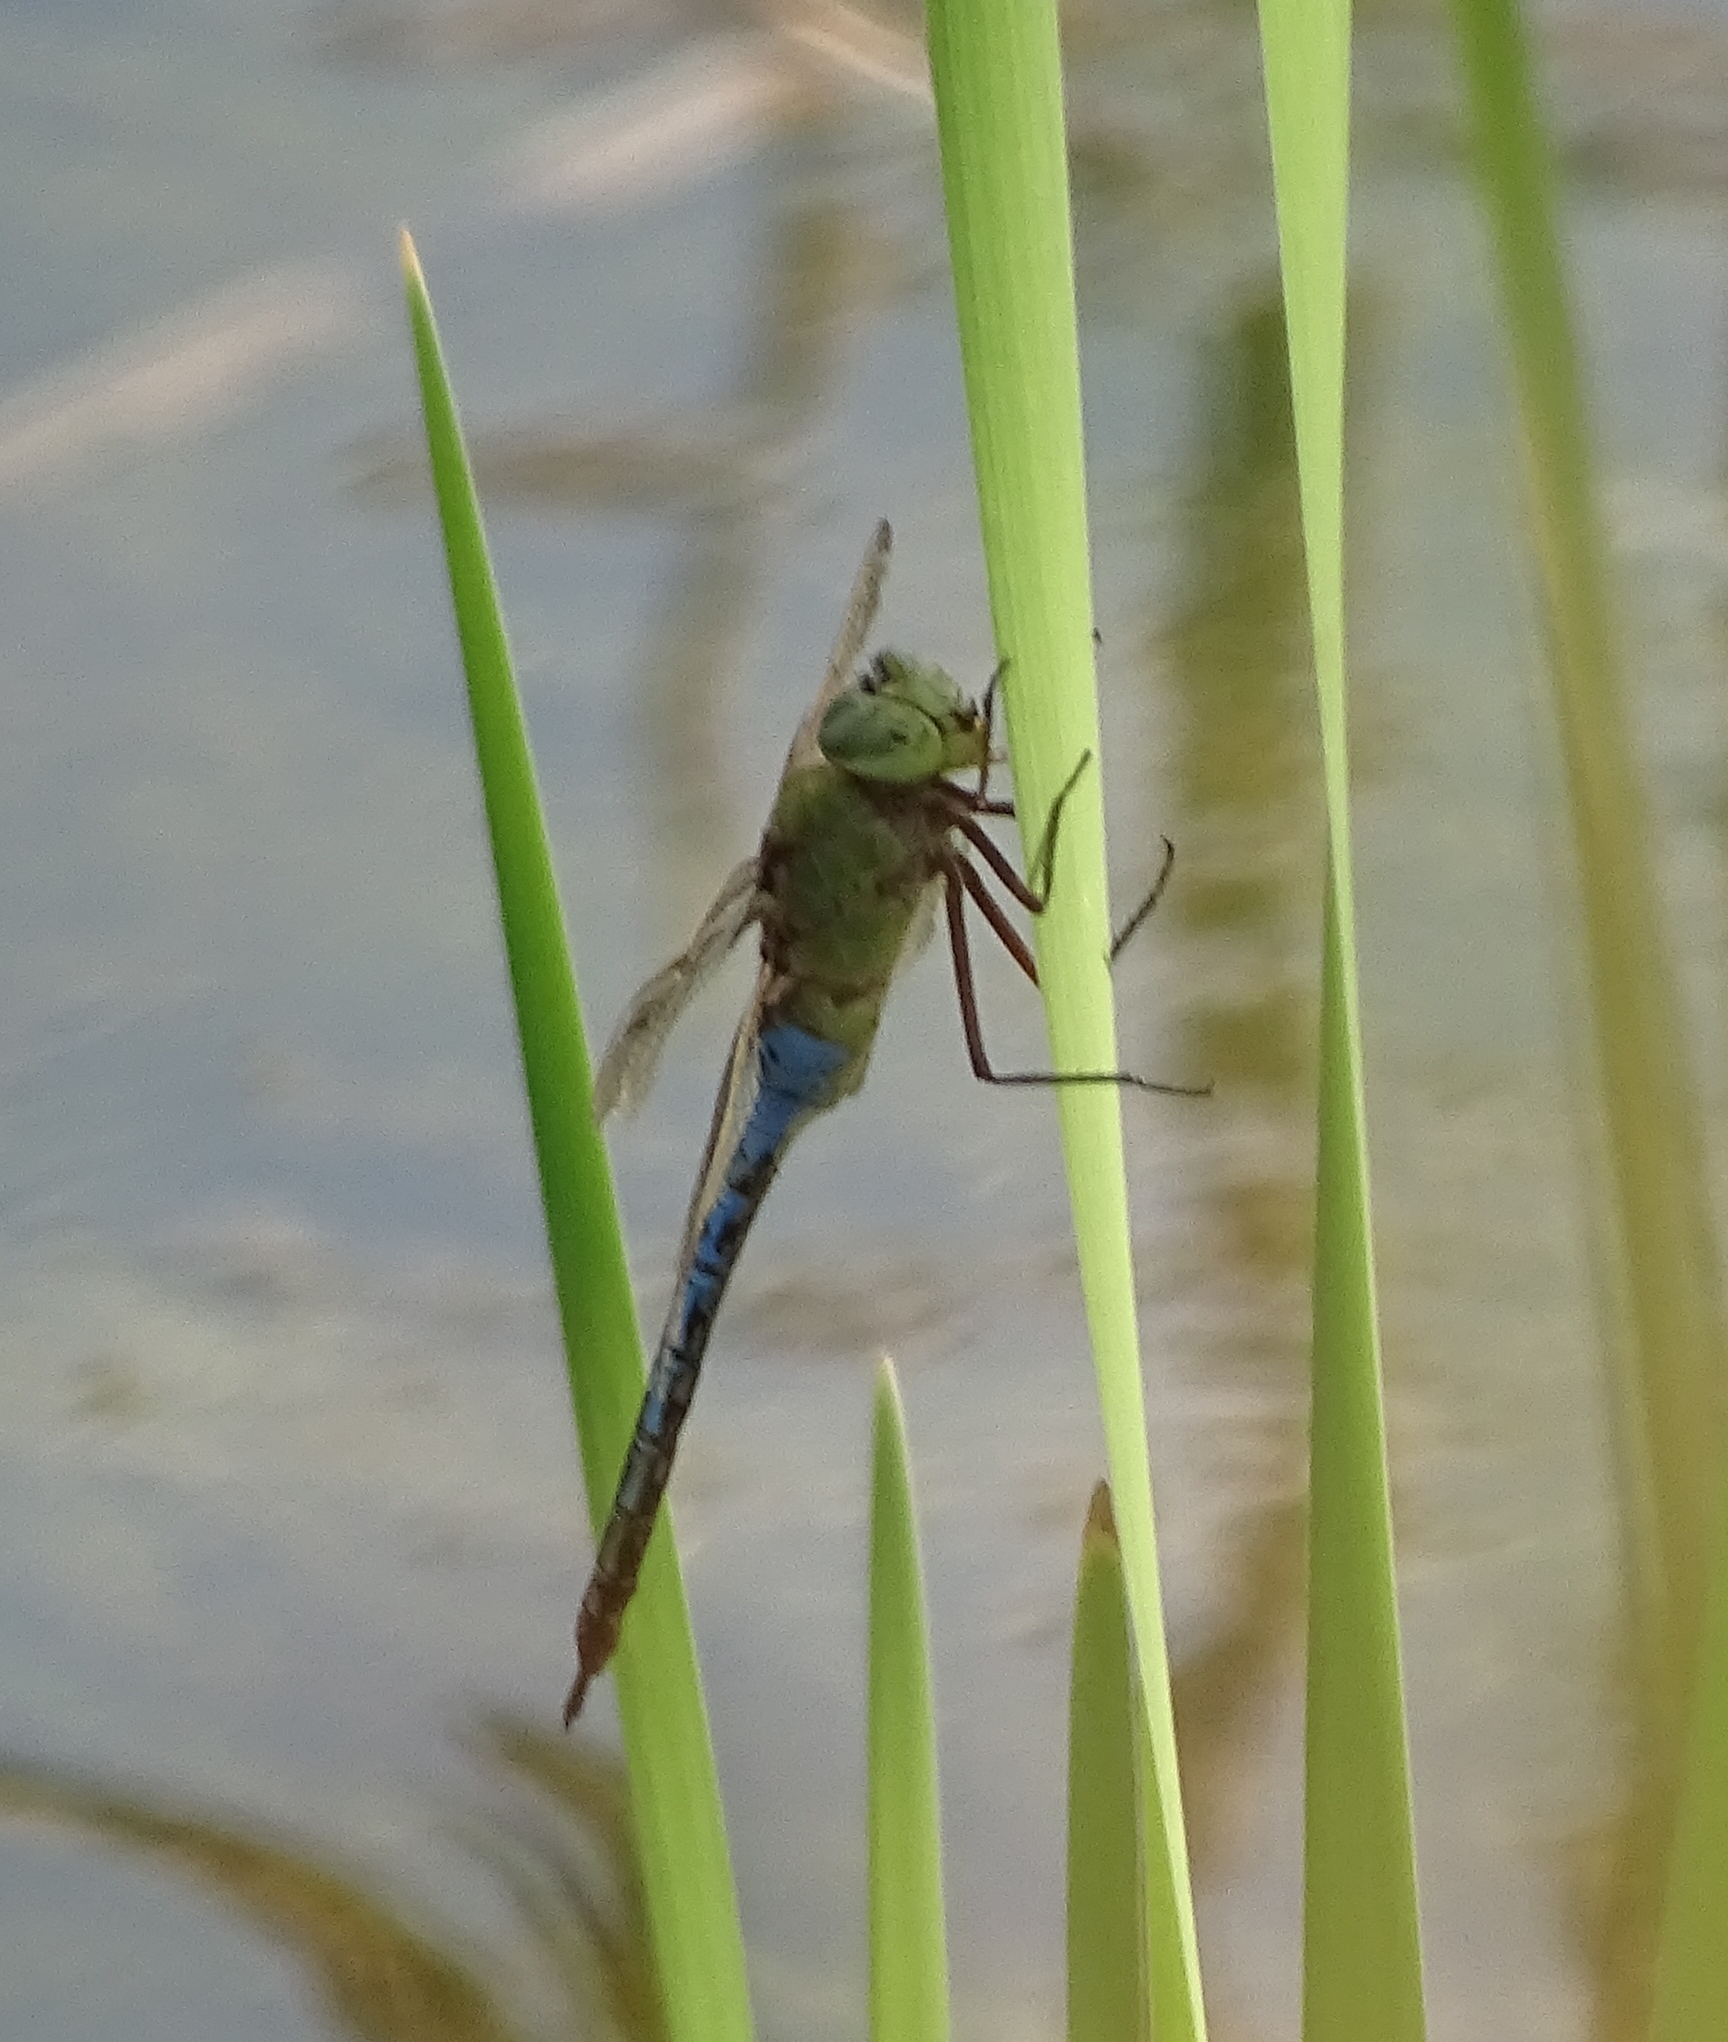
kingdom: Animalia
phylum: Arthropoda
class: Insecta
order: Odonata
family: Aeshnidae
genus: Anax
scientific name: Anax junius
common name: Common green darner
